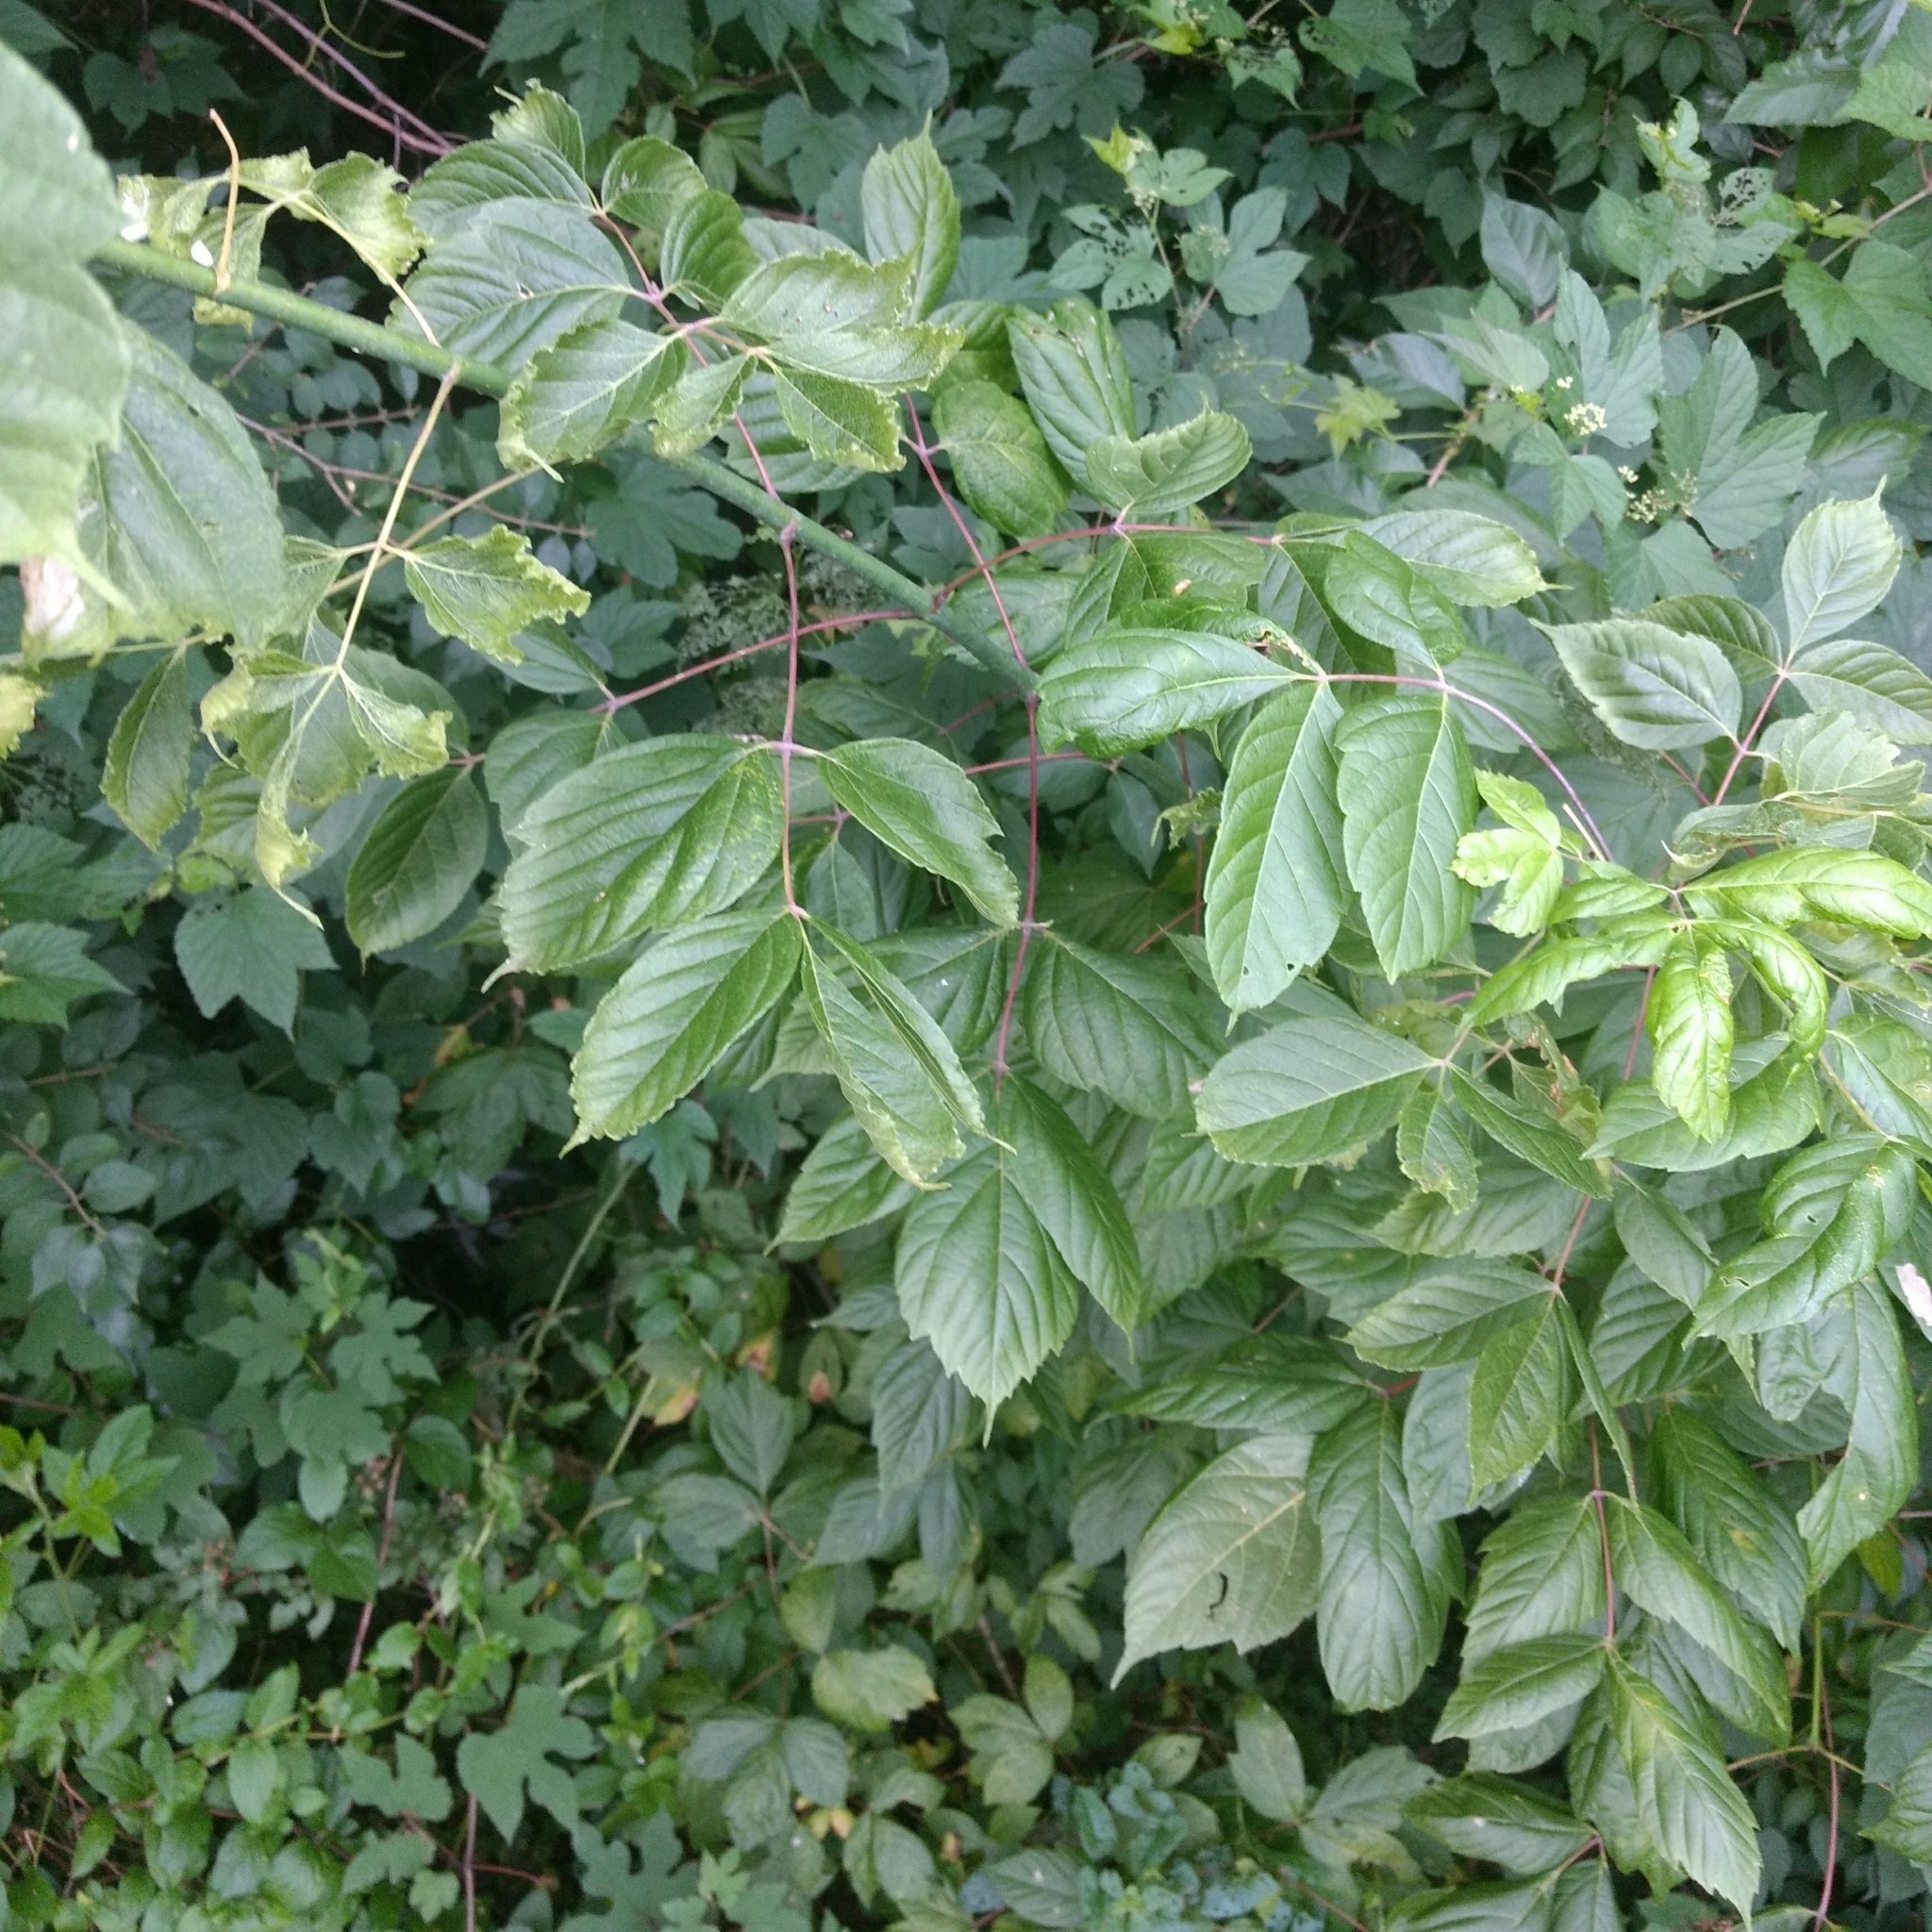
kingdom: Plantae
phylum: Tracheophyta
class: Magnoliopsida
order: Sapindales
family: Sapindaceae
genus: Acer
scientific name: Acer negundo
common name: Ashleaf maple
